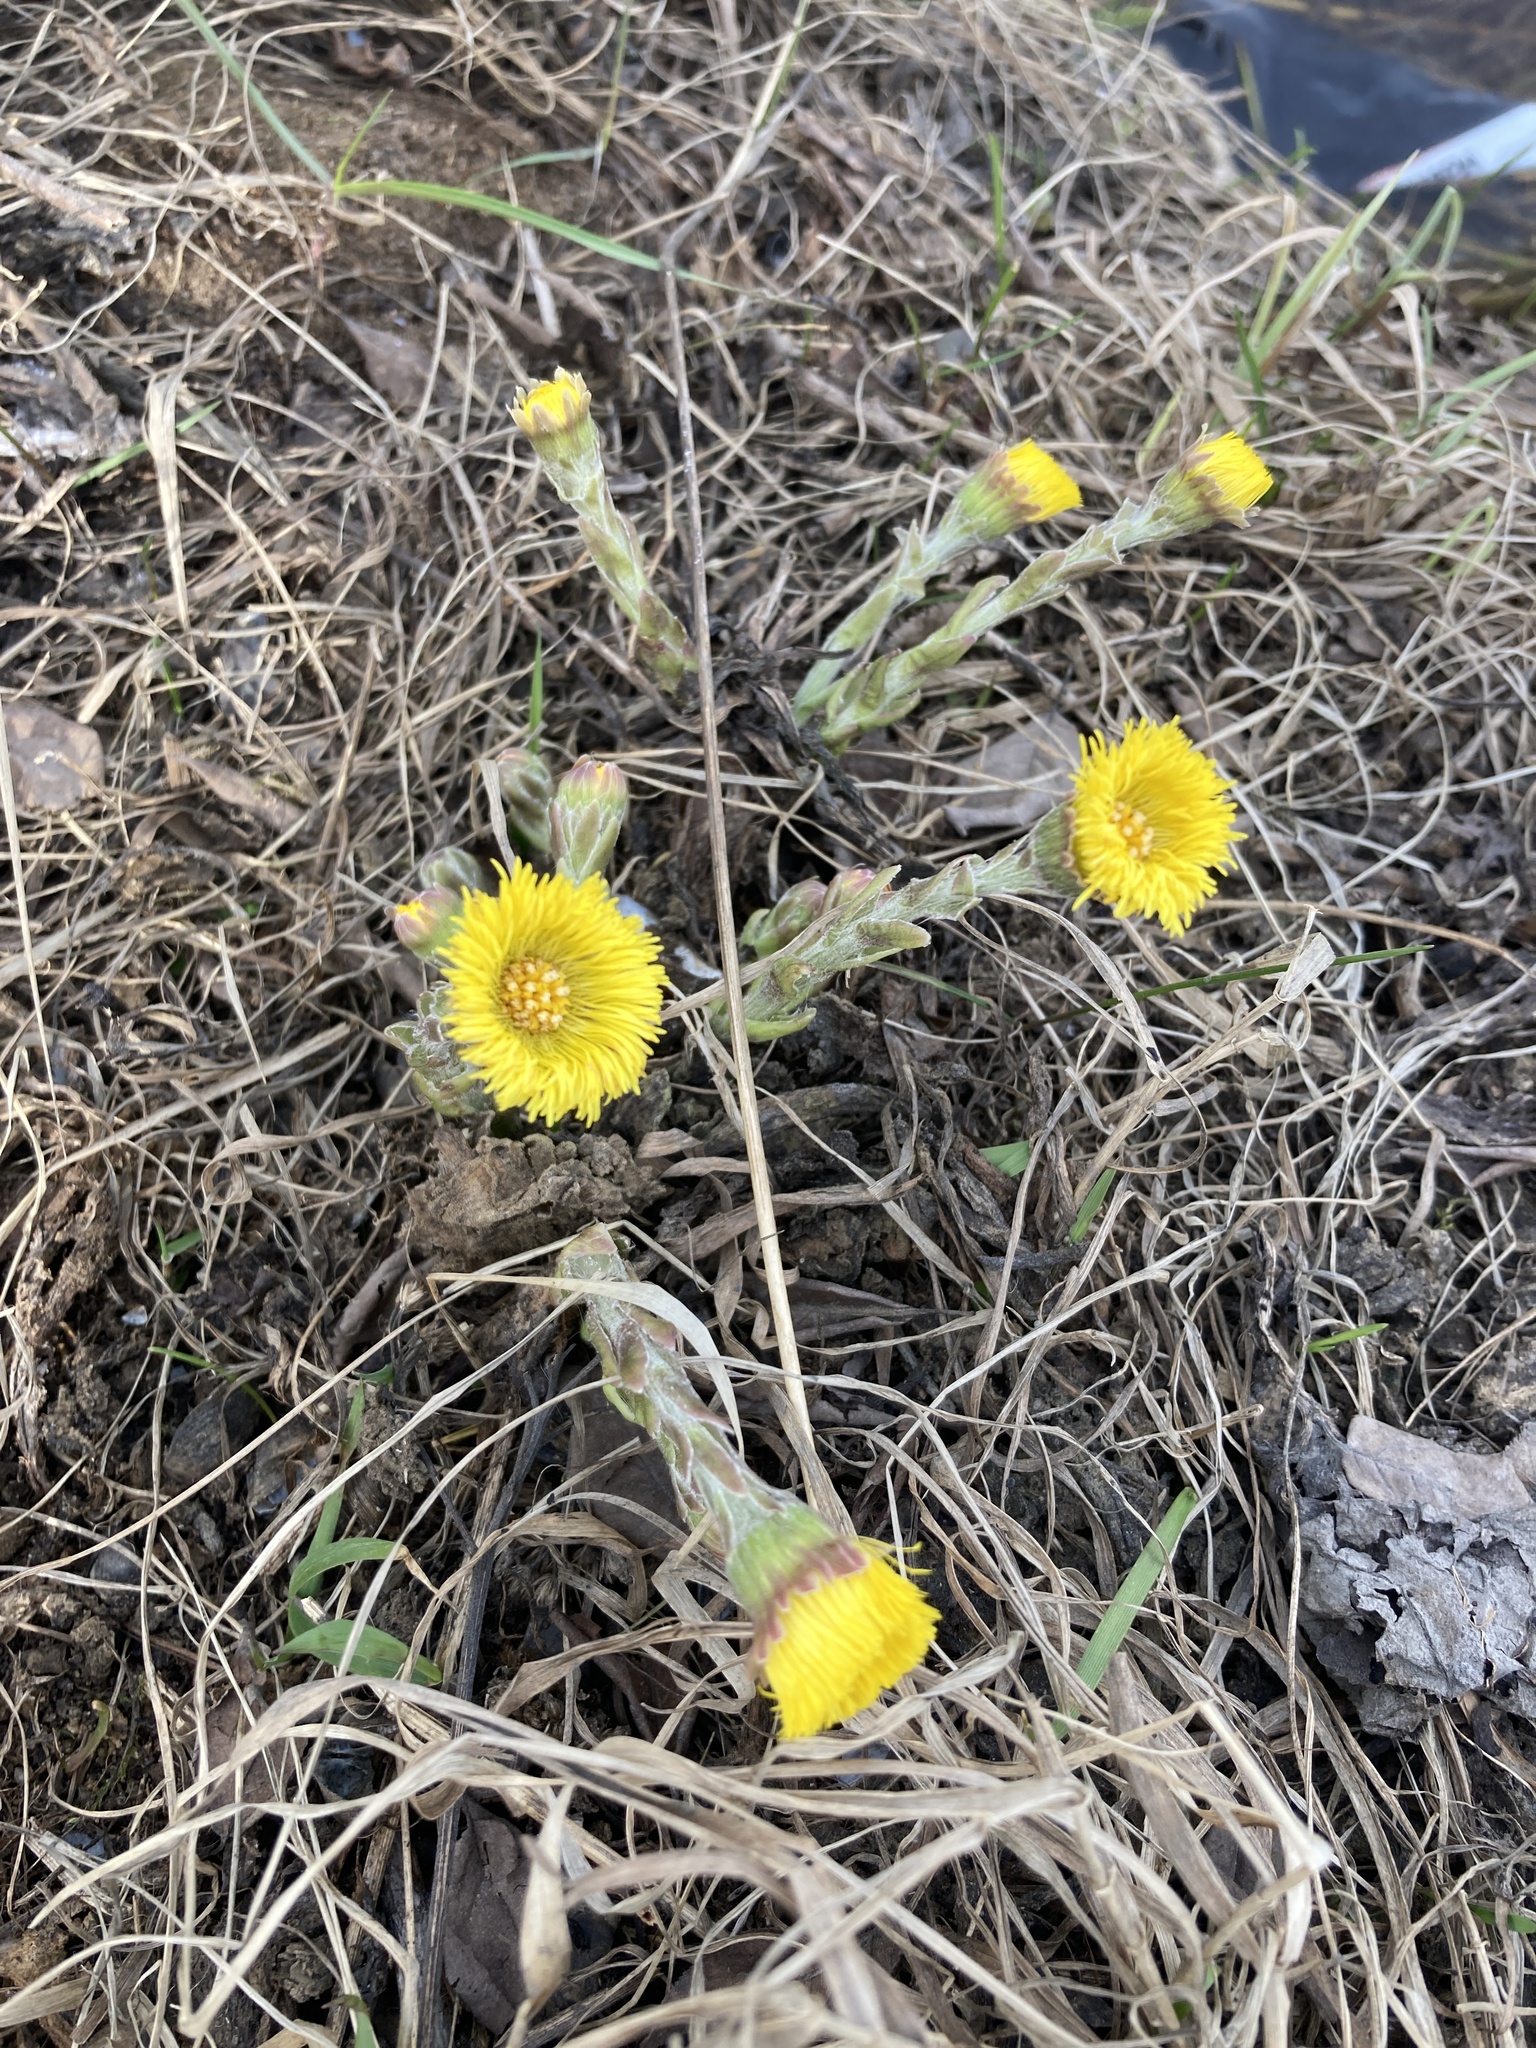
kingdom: Plantae
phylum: Tracheophyta
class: Magnoliopsida
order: Asterales
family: Asteraceae
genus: Tussilago
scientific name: Tussilago farfara
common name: Coltsfoot
